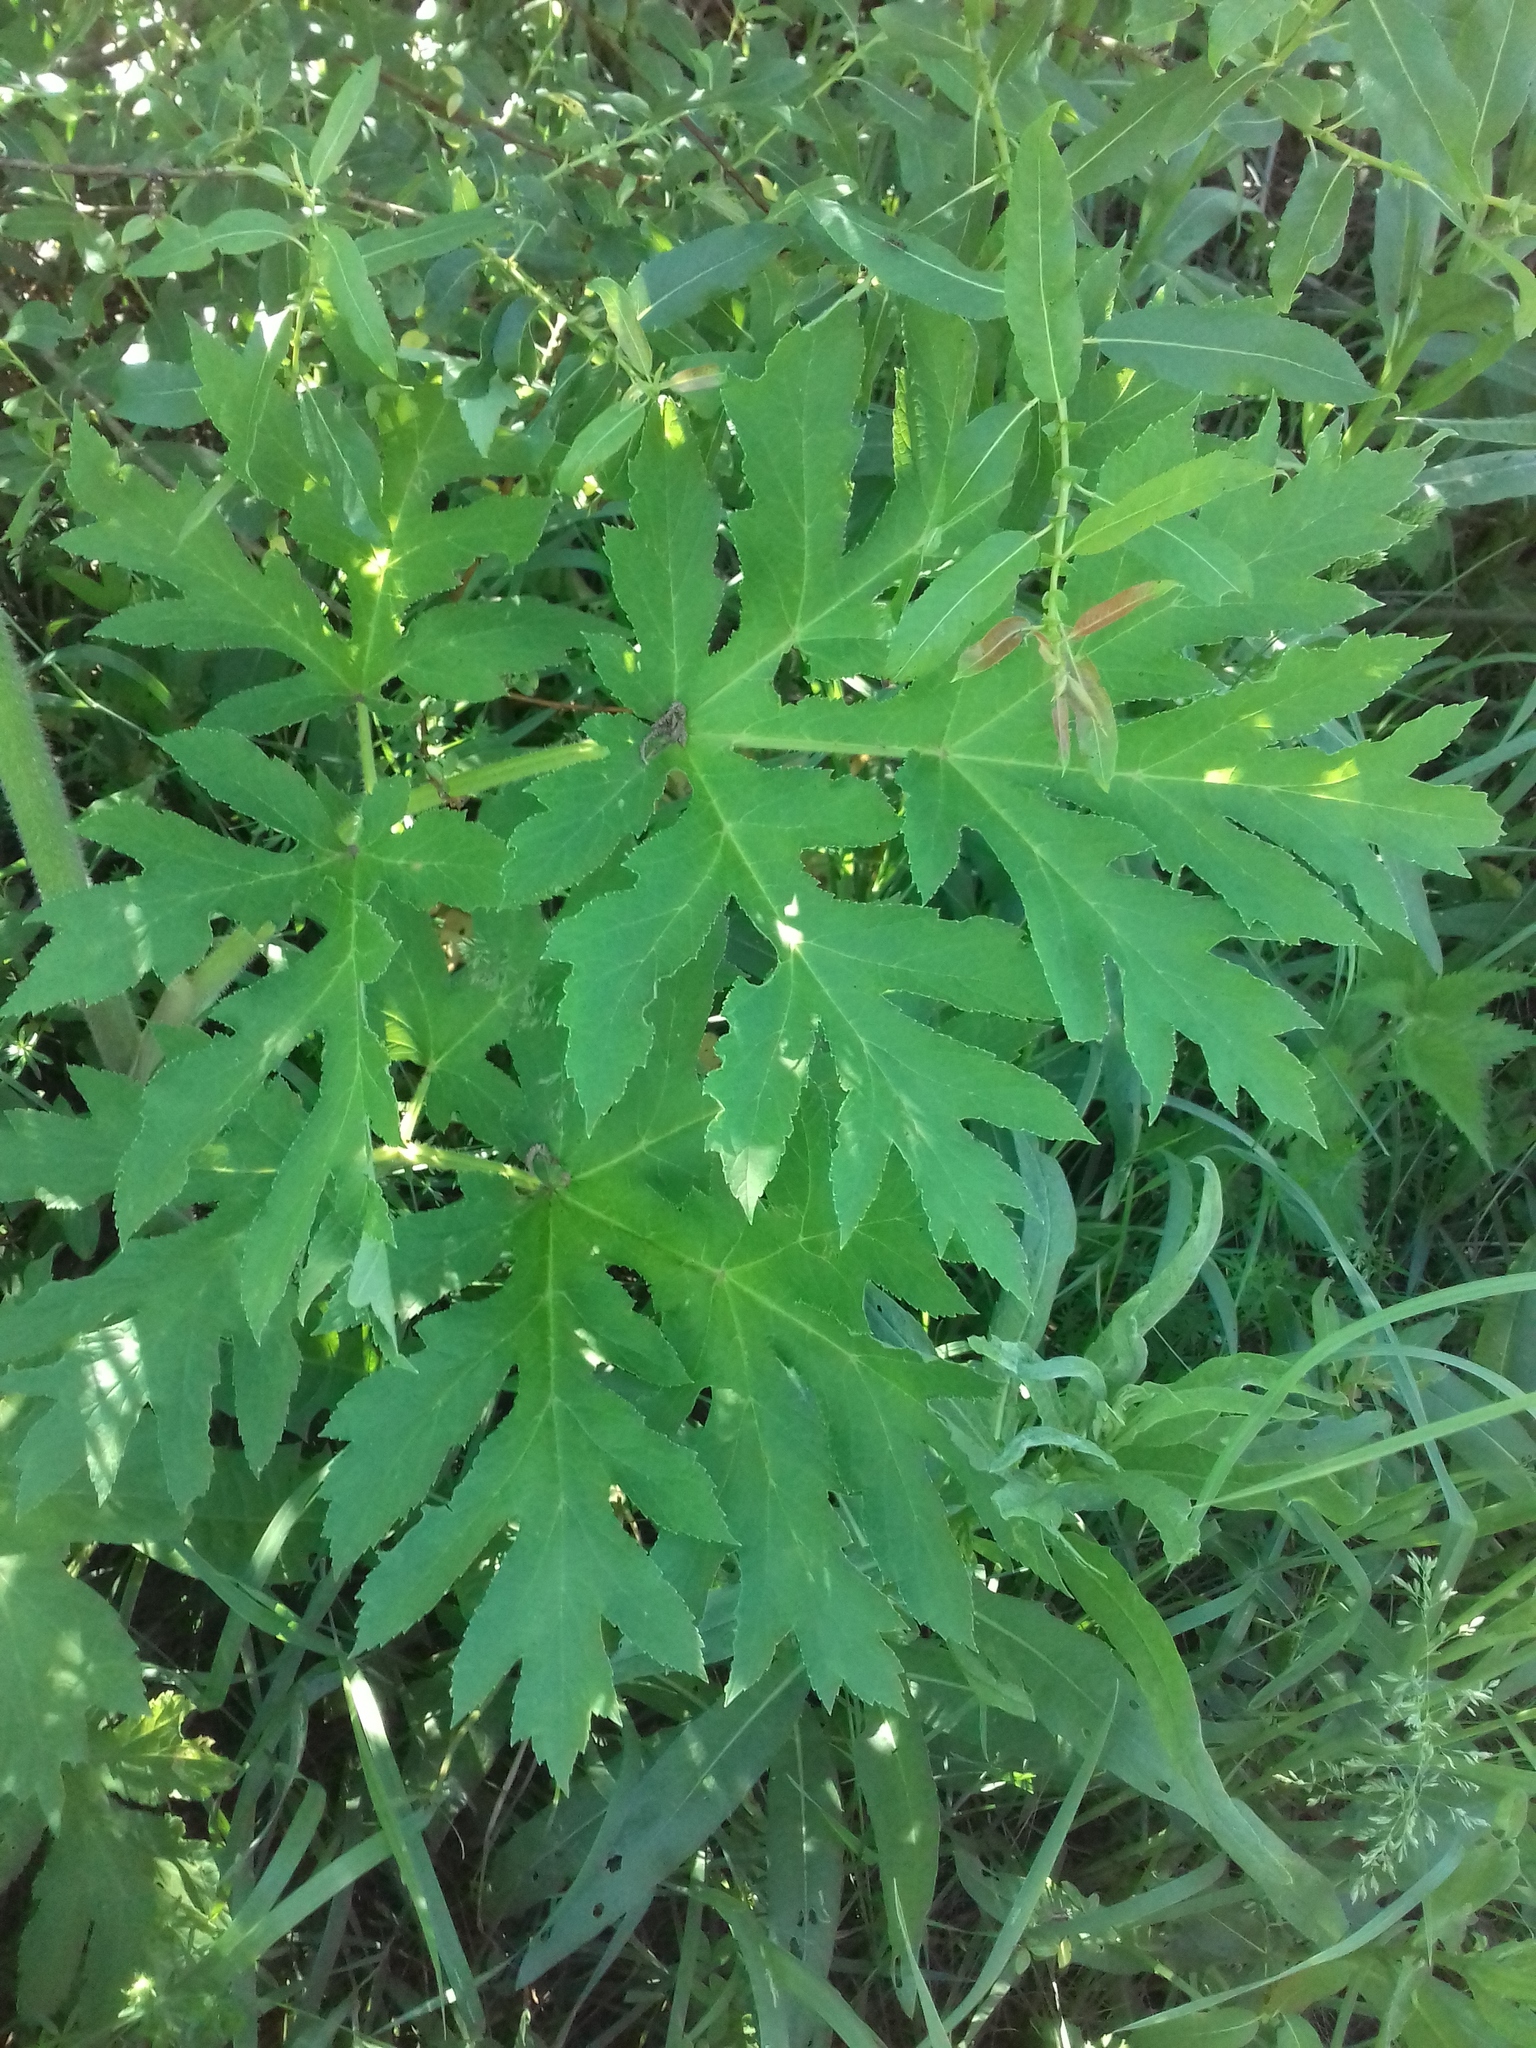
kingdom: Plantae
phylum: Tracheophyta
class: Magnoliopsida
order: Apiales
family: Apiaceae
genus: Heracleum
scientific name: Heracleum sphondylium
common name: Hogweed
